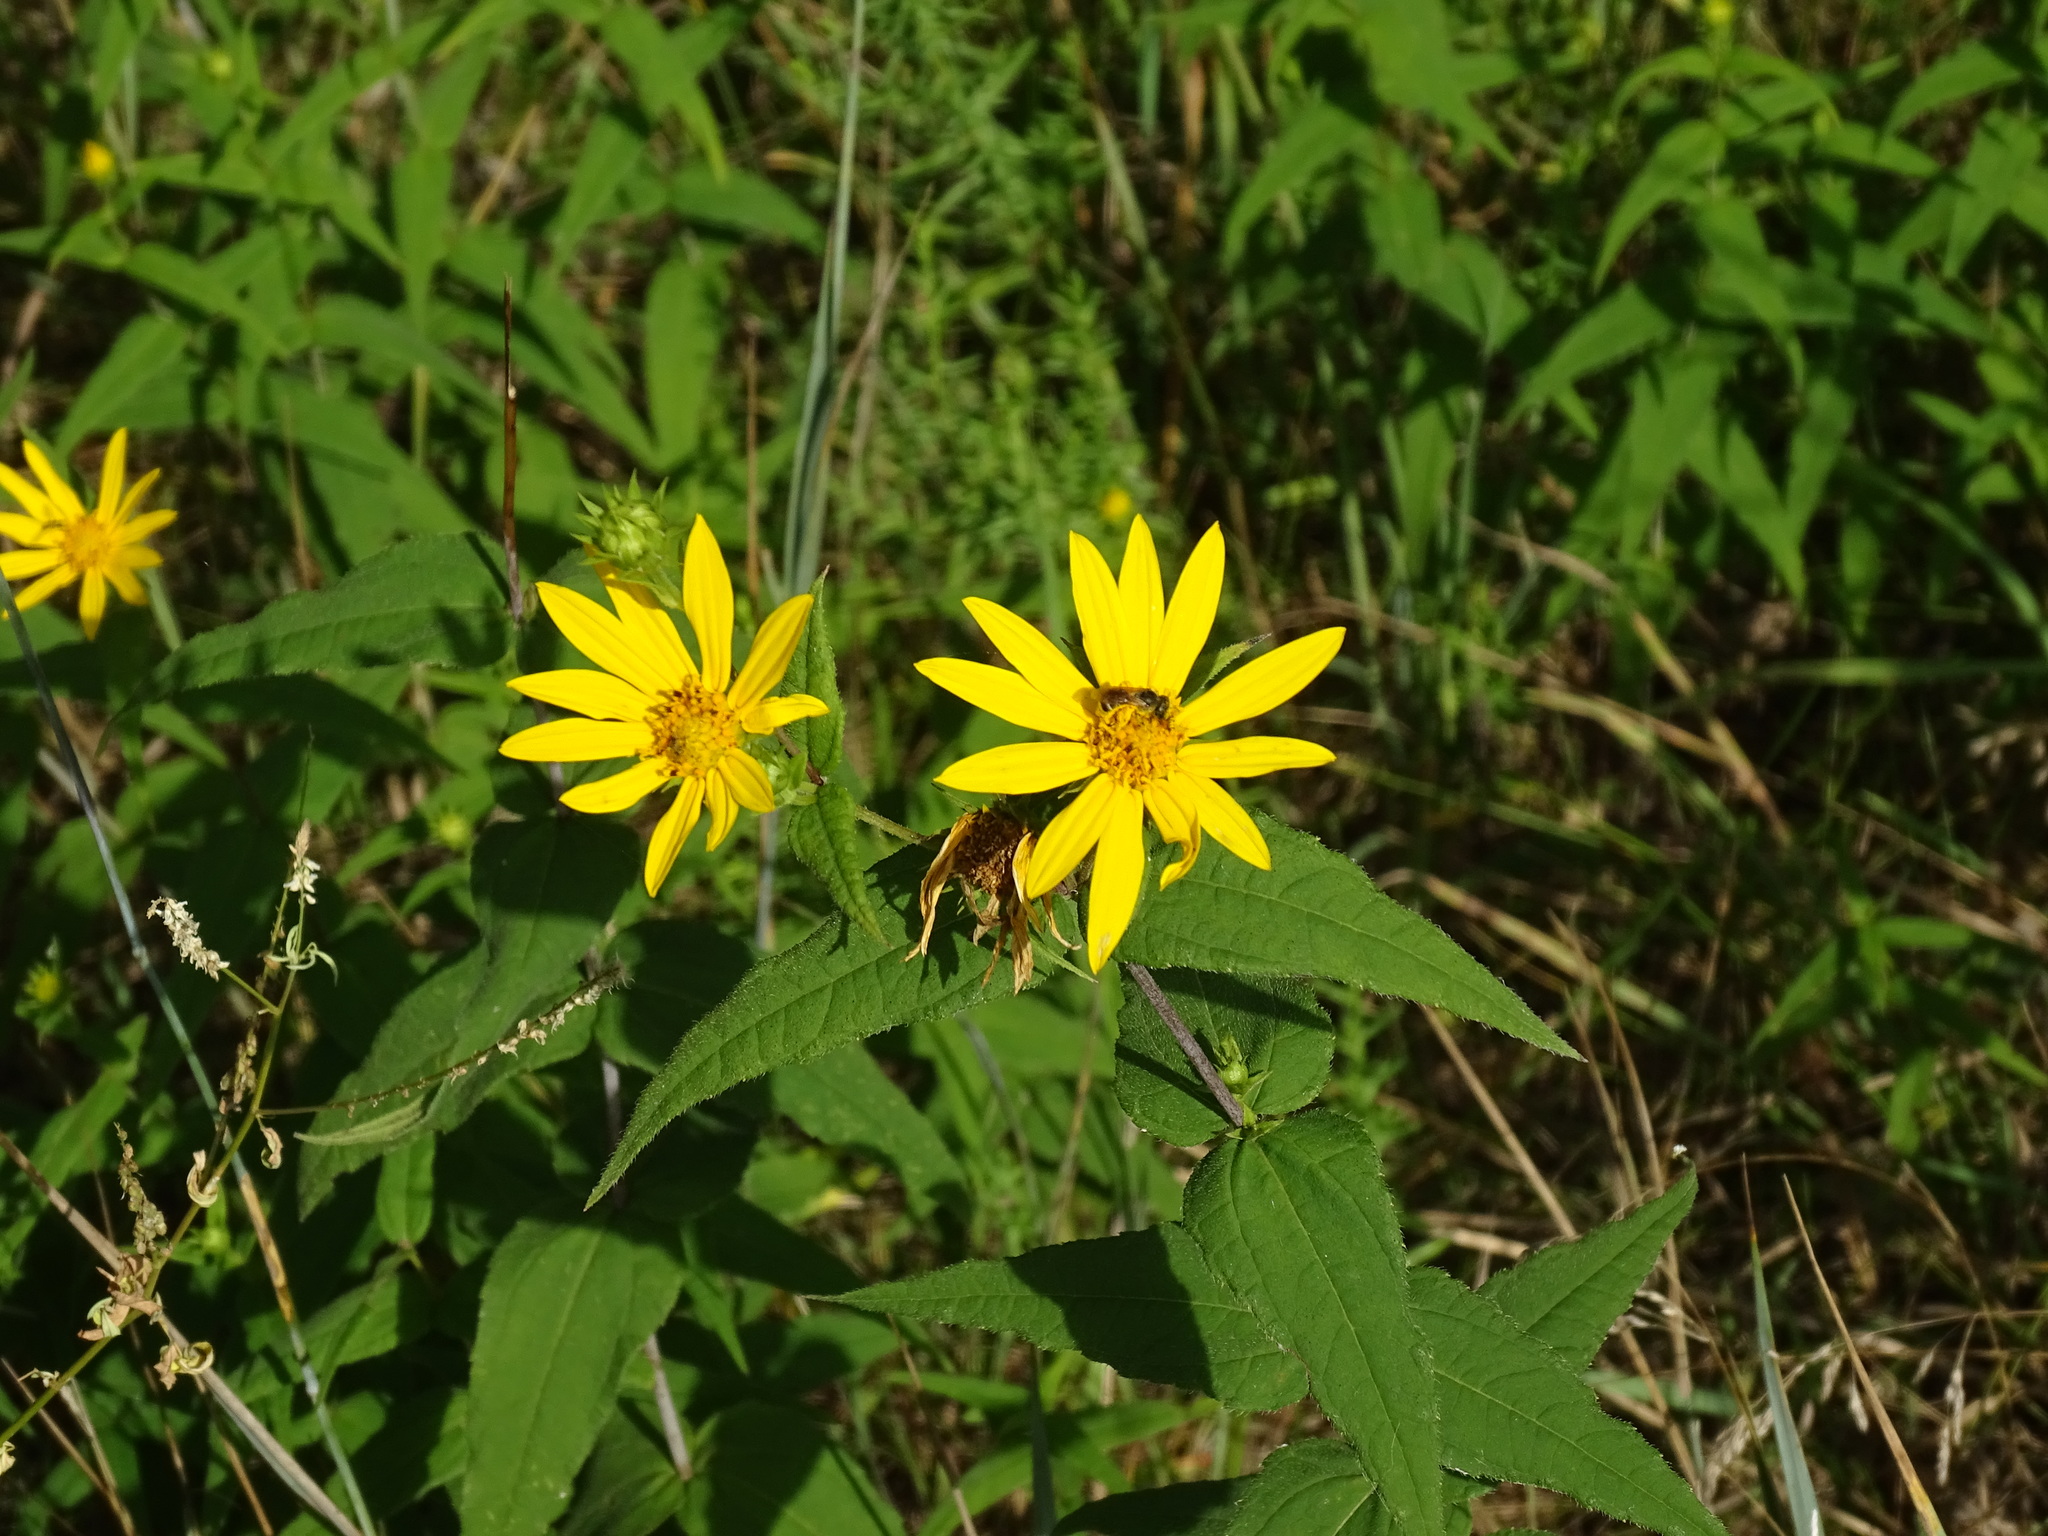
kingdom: Plantae
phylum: Tracheophyta
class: Magnoliopsida
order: Asterales
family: Asteraceae
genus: Helianthus
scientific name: Helianthus divaricatus
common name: Divergent sunflower
